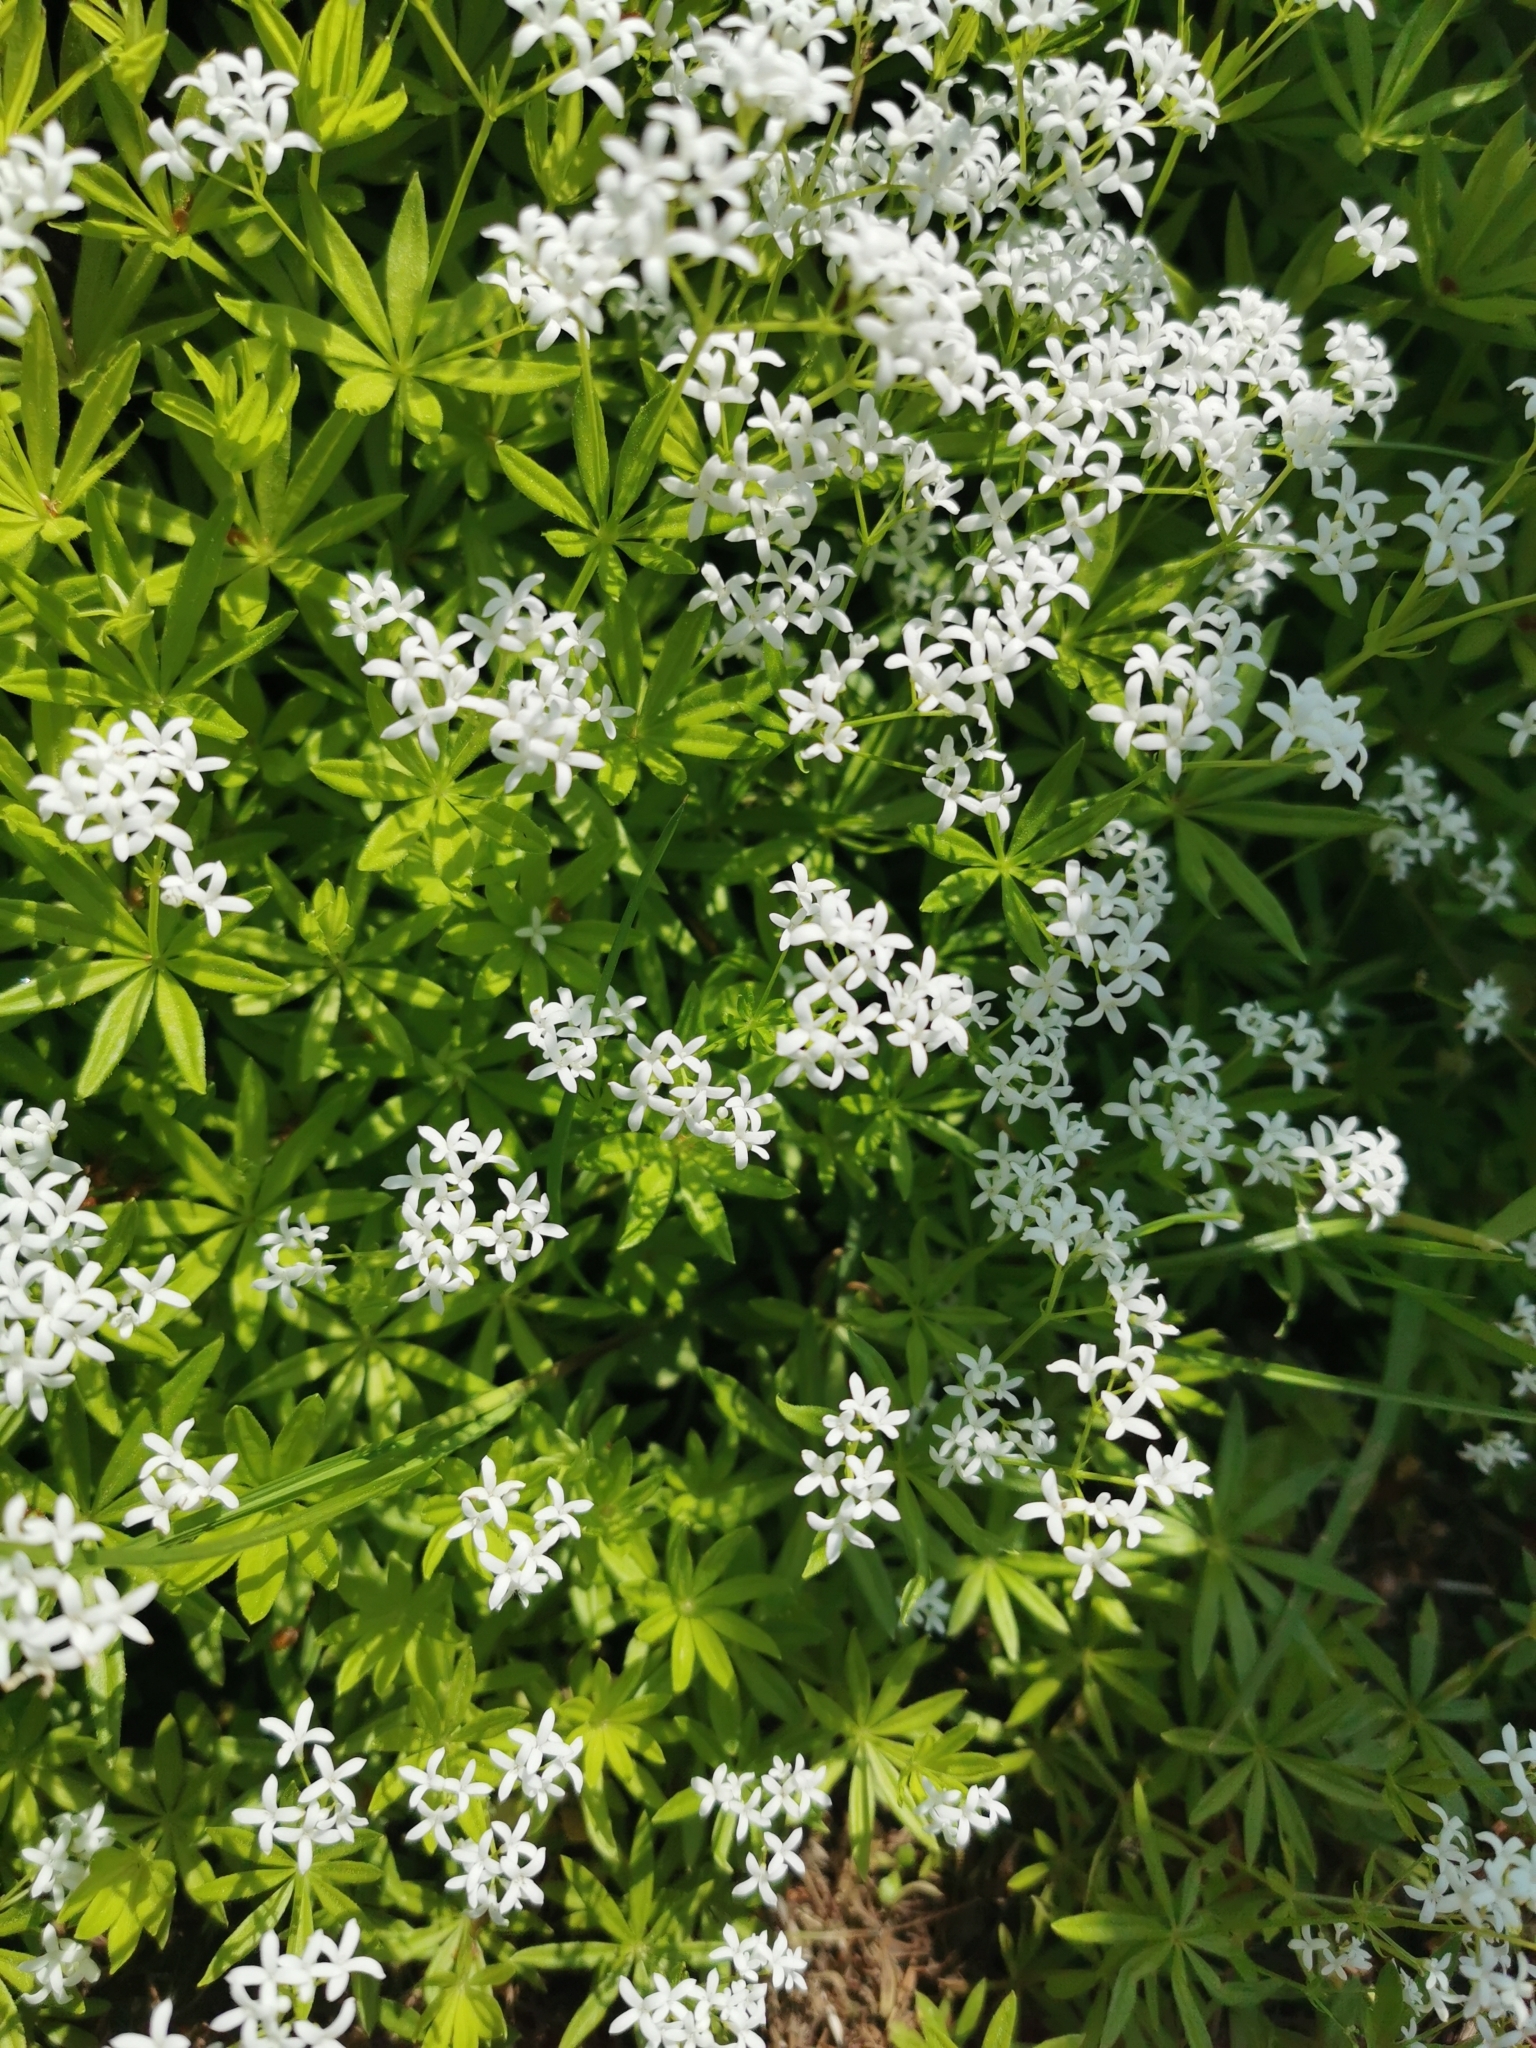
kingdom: Plantae
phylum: Tracheophyta
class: Magnoliopsida
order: Gentianales
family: Rubiaceae
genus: Galium
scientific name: Galium odoratum
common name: Sweet woodruff
